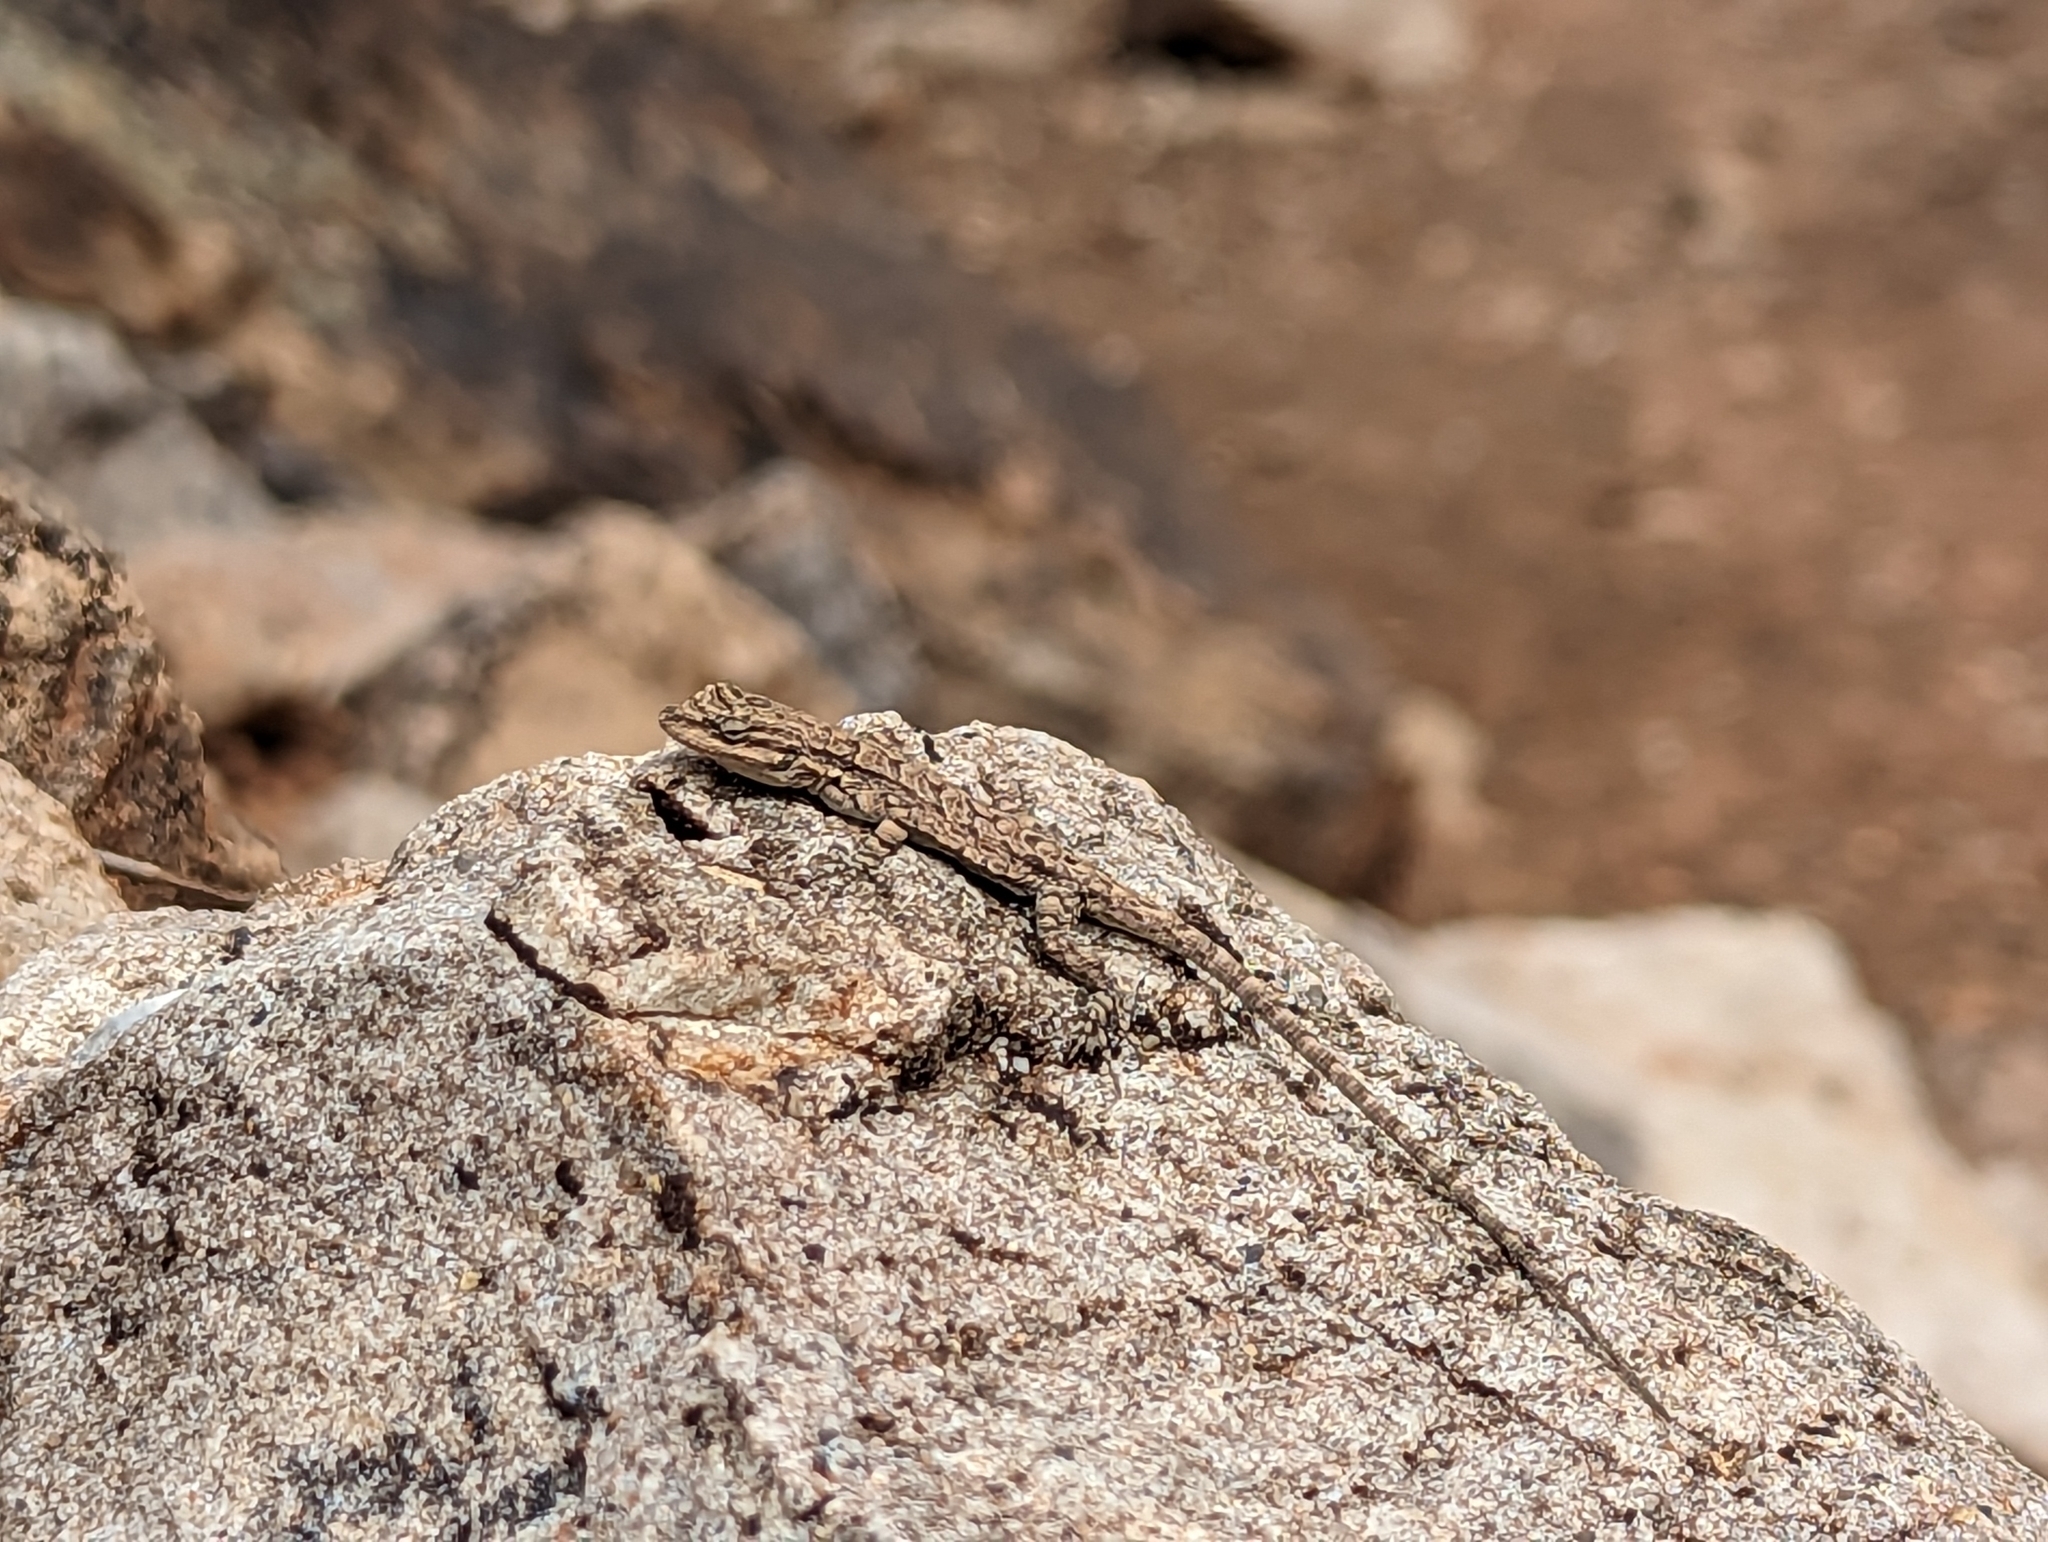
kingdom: Animalia
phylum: Chordata
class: Squamata
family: Phrynosomatidae
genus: Urosaurus
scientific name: Urosaurus ornatus
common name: Ornate tree lizard
